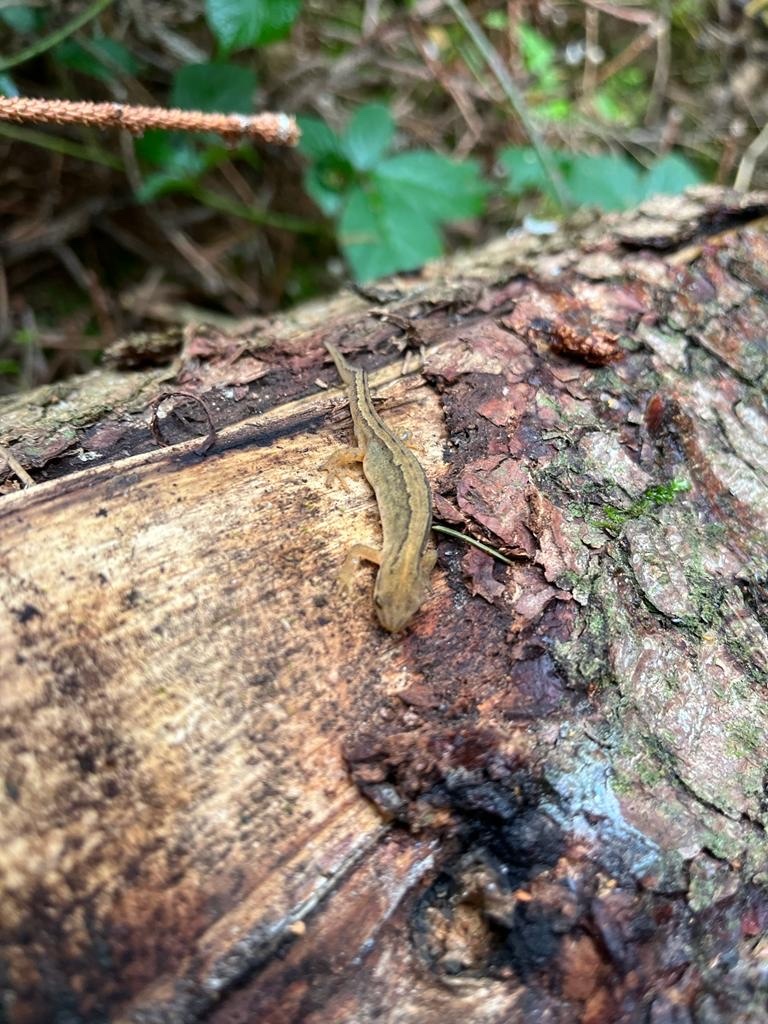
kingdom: Animalia
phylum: Chordata
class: Amphibia
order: Caudata
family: Salamandridae
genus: Lissotriton
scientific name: Lissotriton vulgaris
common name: Smooth newt
